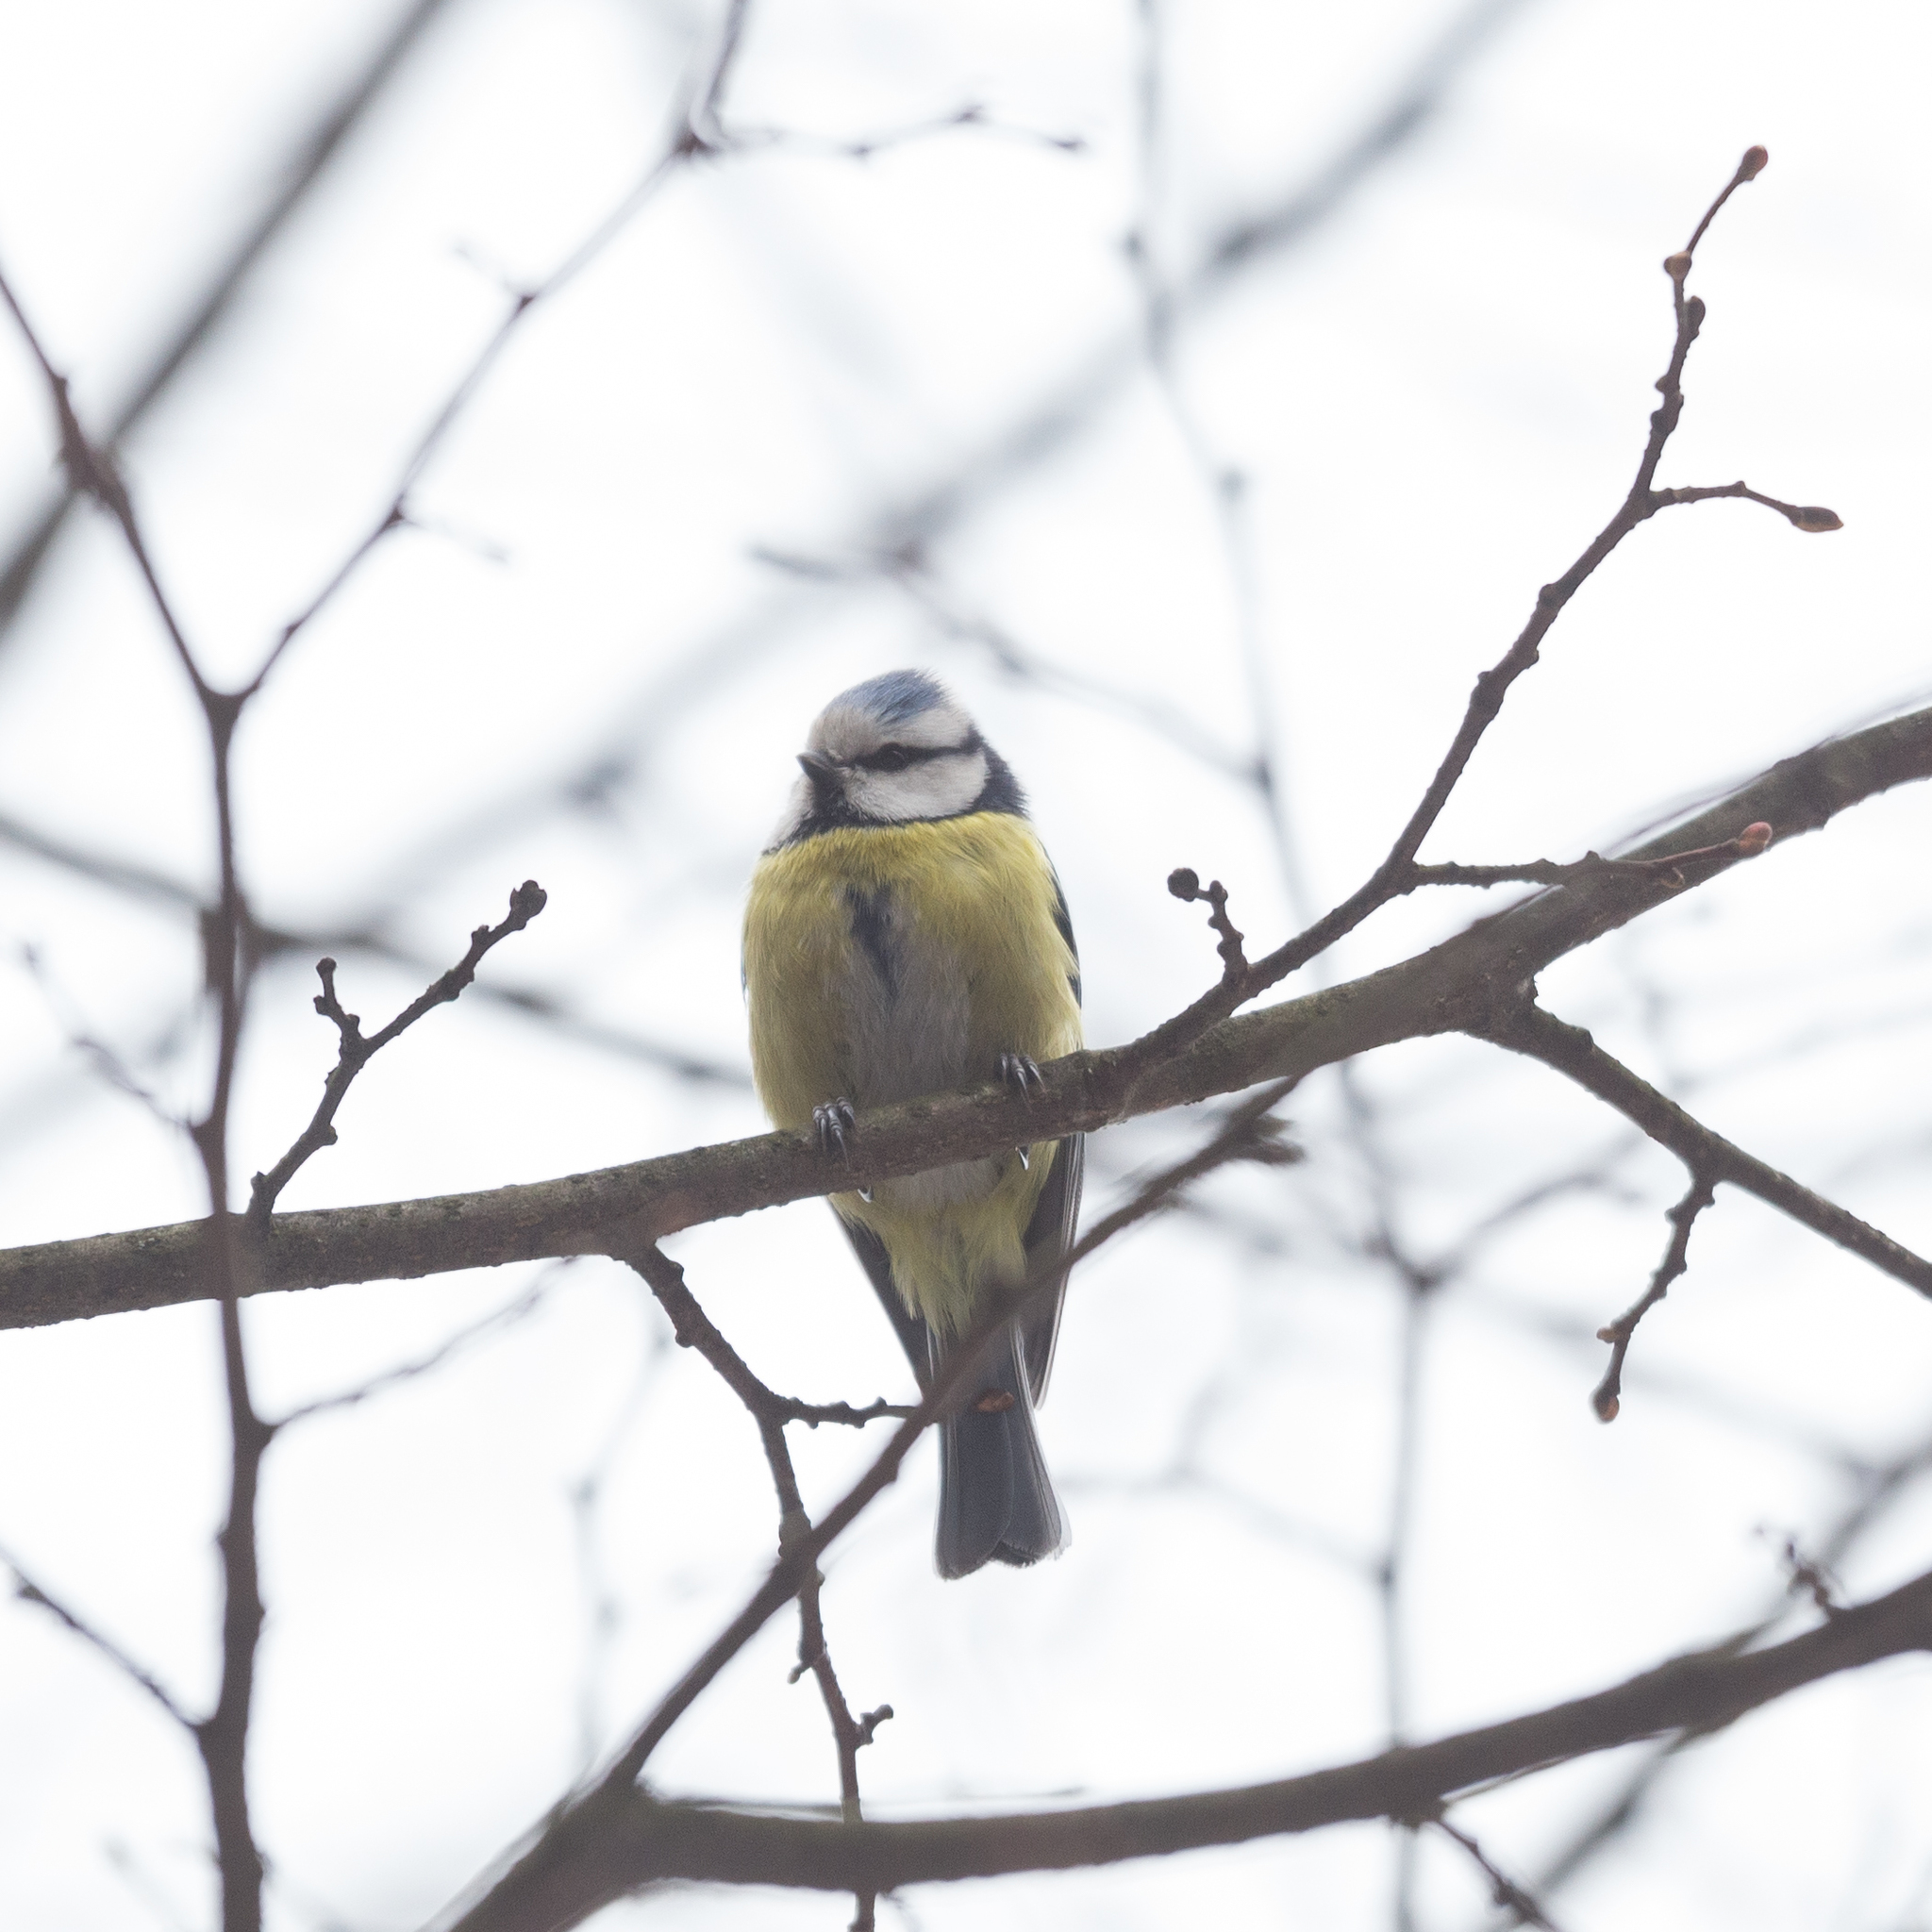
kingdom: Animalia
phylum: Chordata
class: Aves
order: Passeriformes
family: Paridae
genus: Cyanistes
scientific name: Cyanistes caeruleus
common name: Eurasian blue tit
